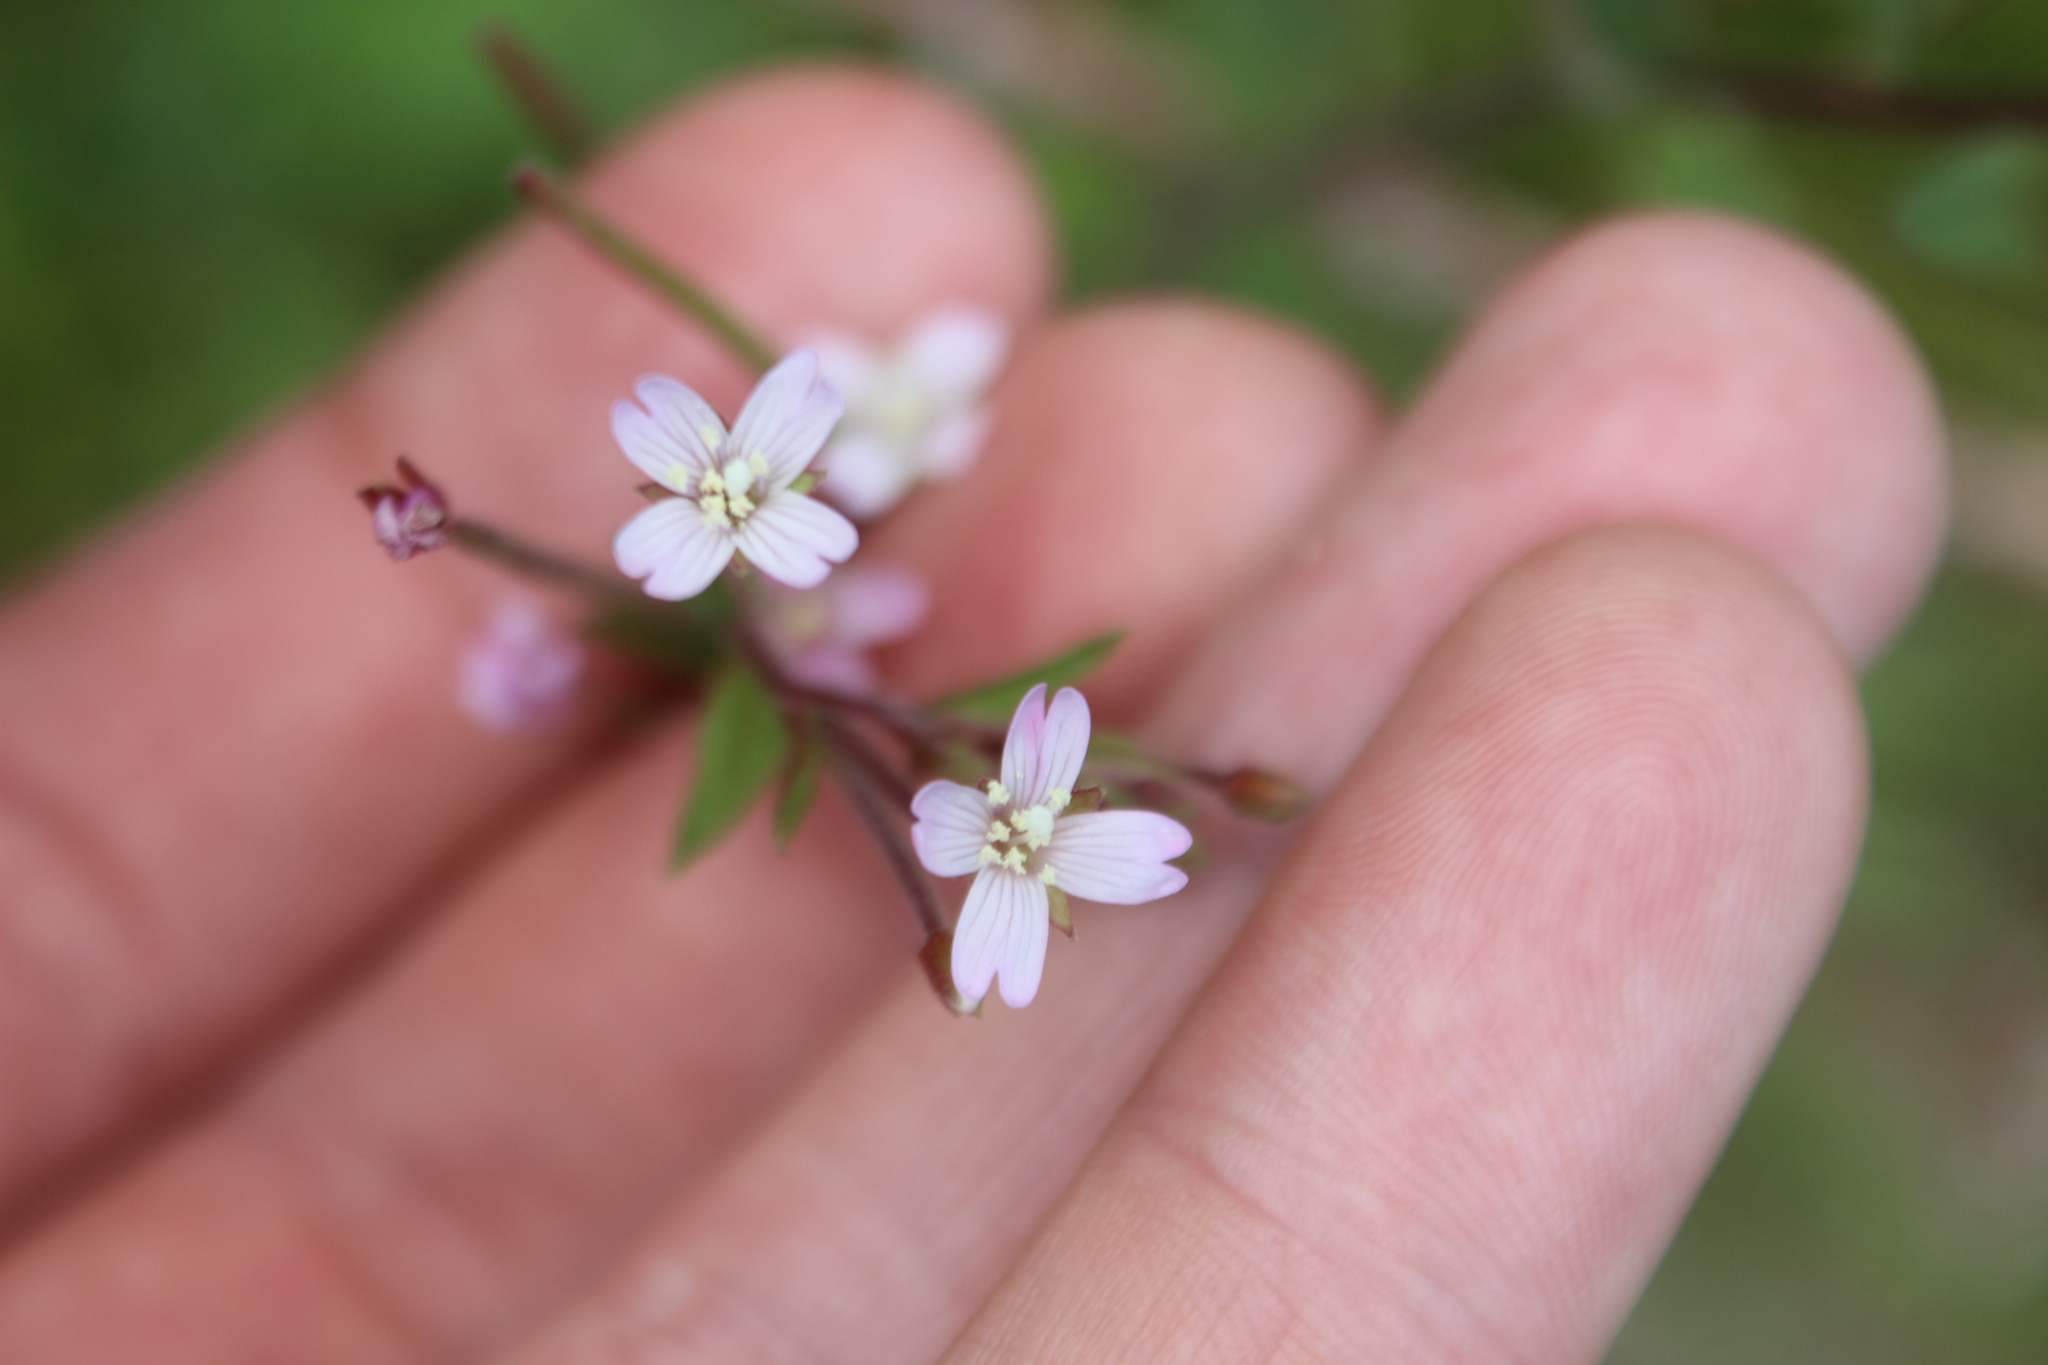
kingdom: Plantae
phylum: Tracheophyta
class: Magnoliopsida
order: Myrtales
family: Onagraceae
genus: Epilobium
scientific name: Epilobium ciliatum
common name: American willowherb
